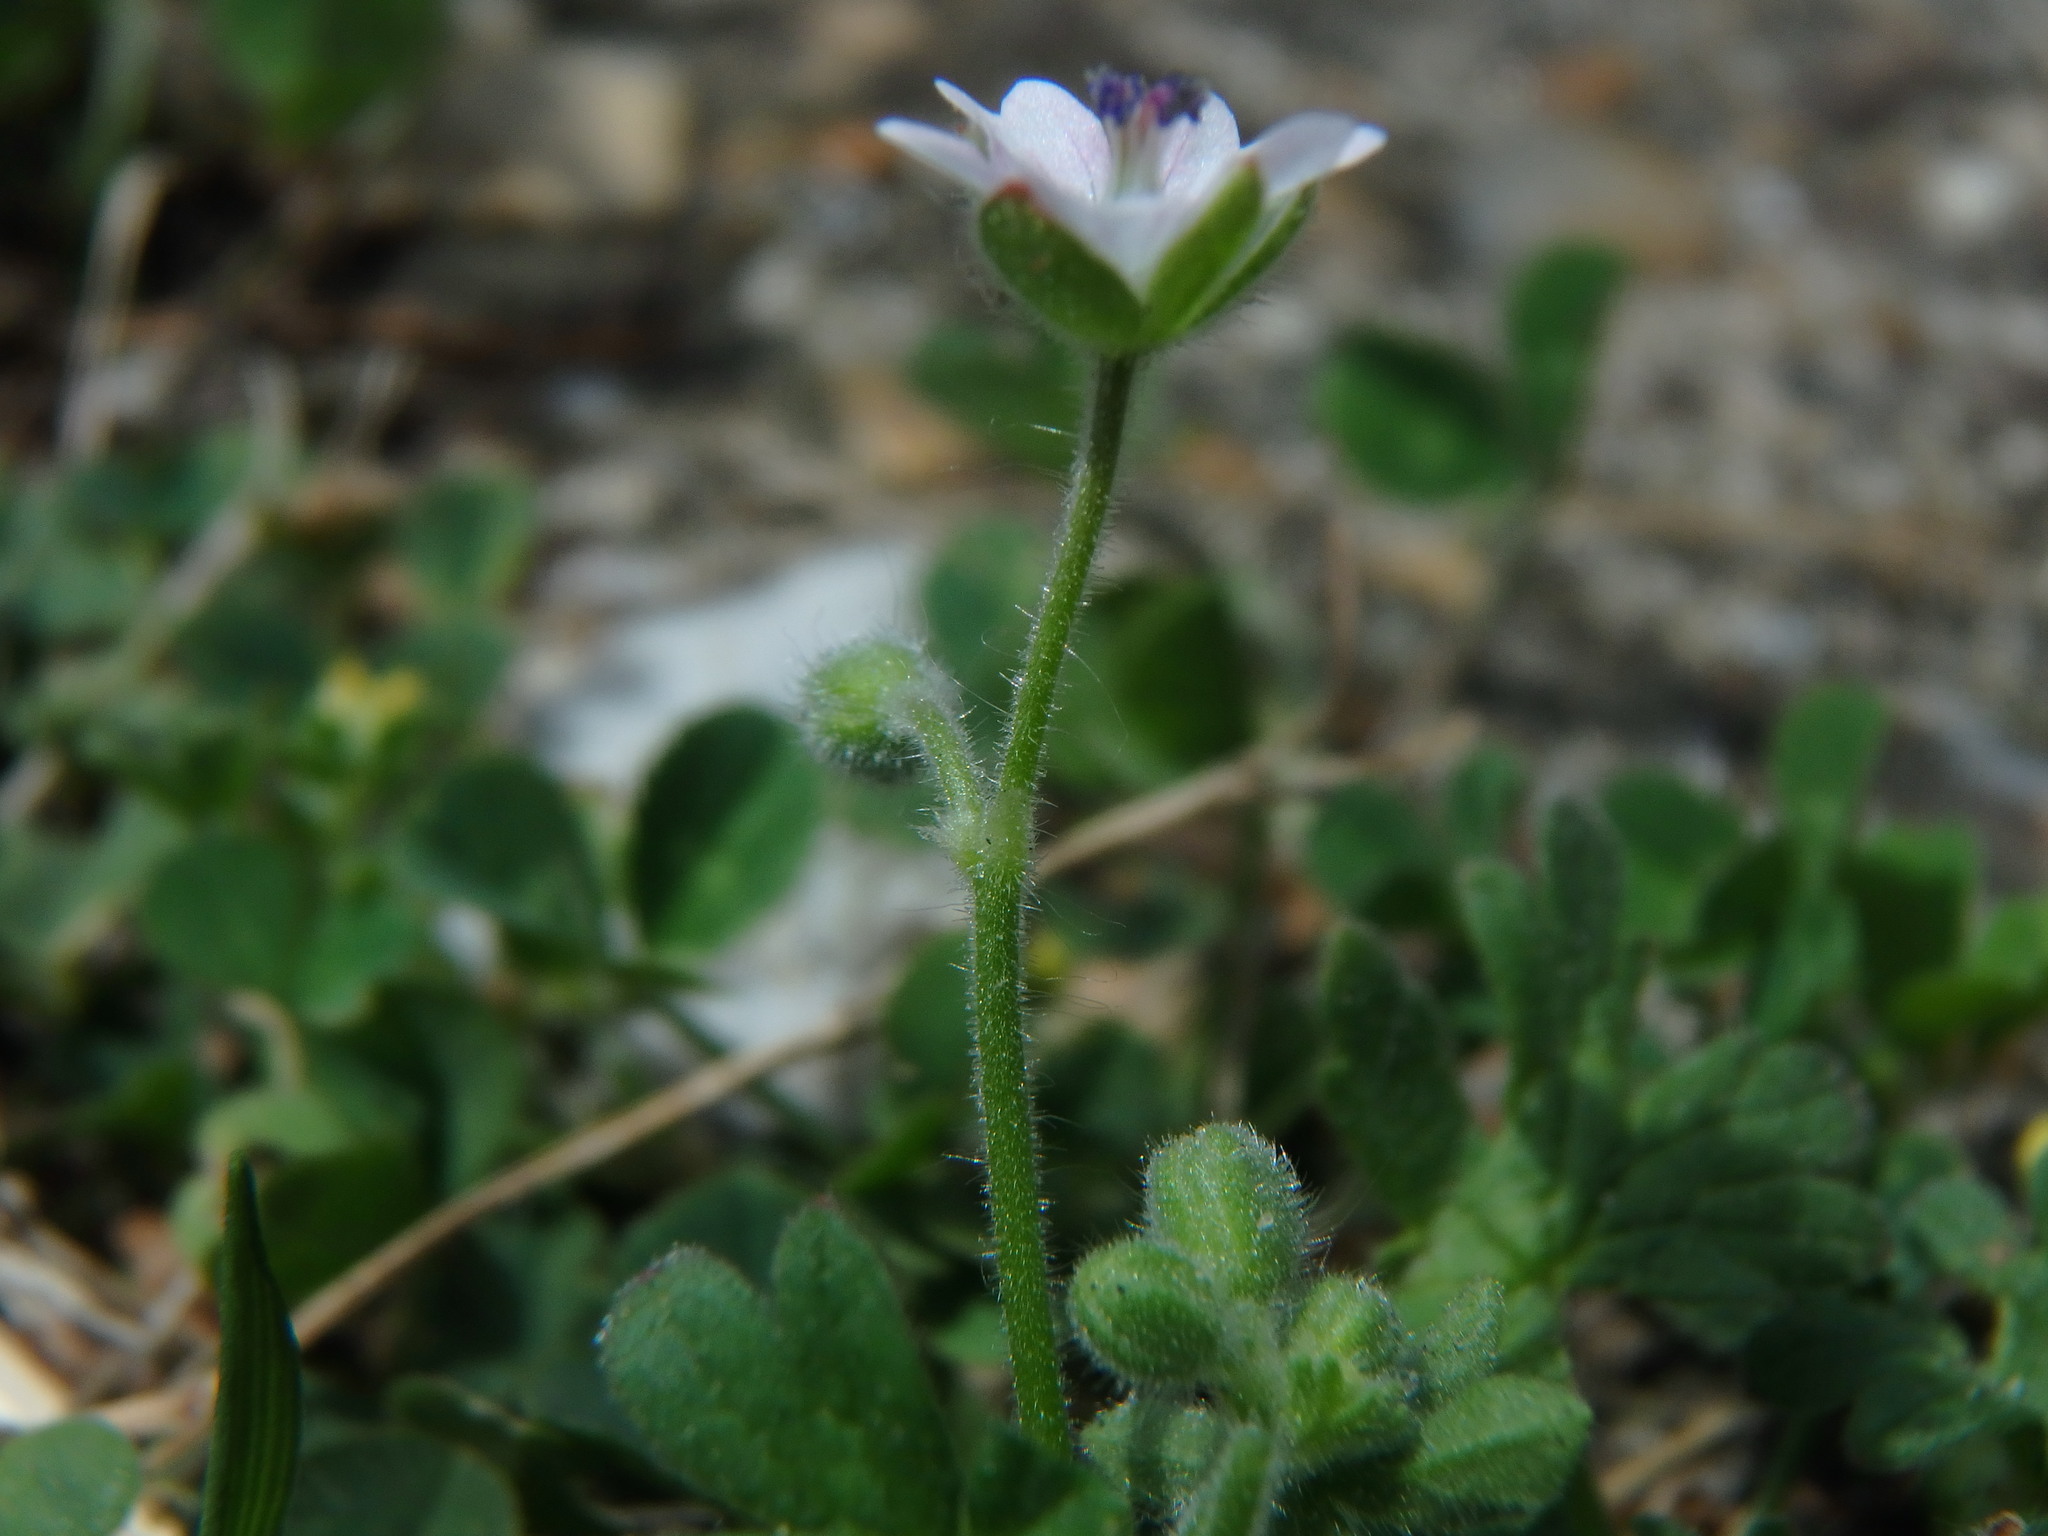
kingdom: Plantae
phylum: Tracheophyta
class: Magnoliopsida
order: Geraniales
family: Geraniaceae
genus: Geranium
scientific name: Geranium molle
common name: Dove's-foot crane's-bill
